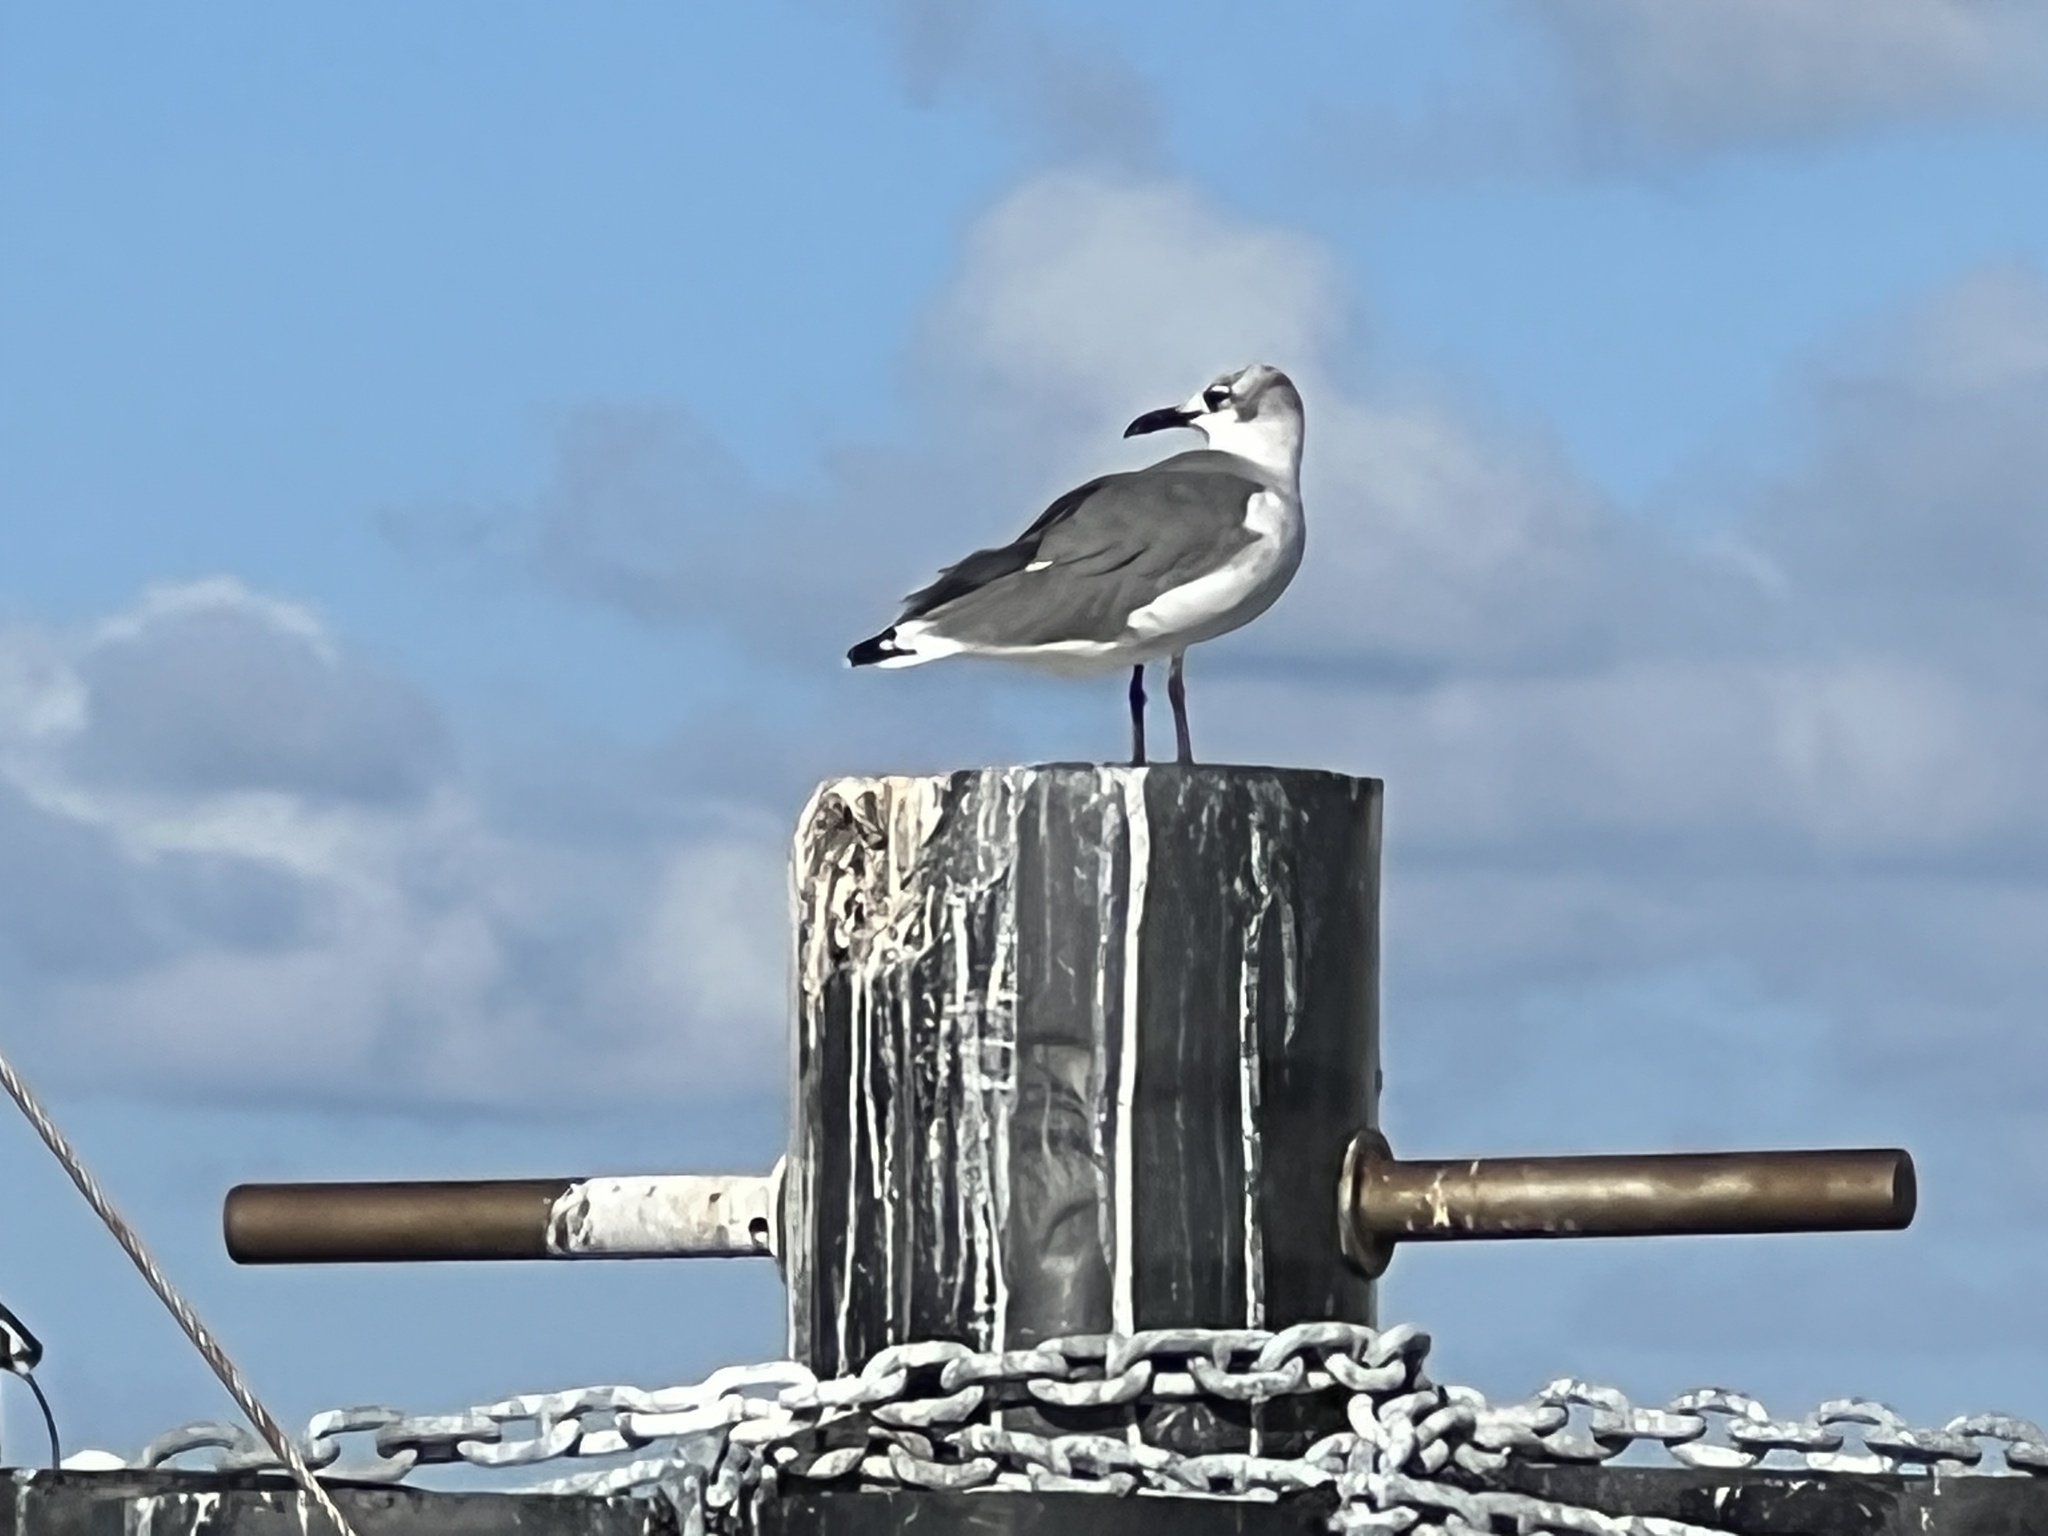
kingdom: Animalia
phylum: Chordata
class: Aves
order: Charadriiformes
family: Laridae
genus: Leucophaeus
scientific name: Leucophaeus atricilla
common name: Laughing gull
